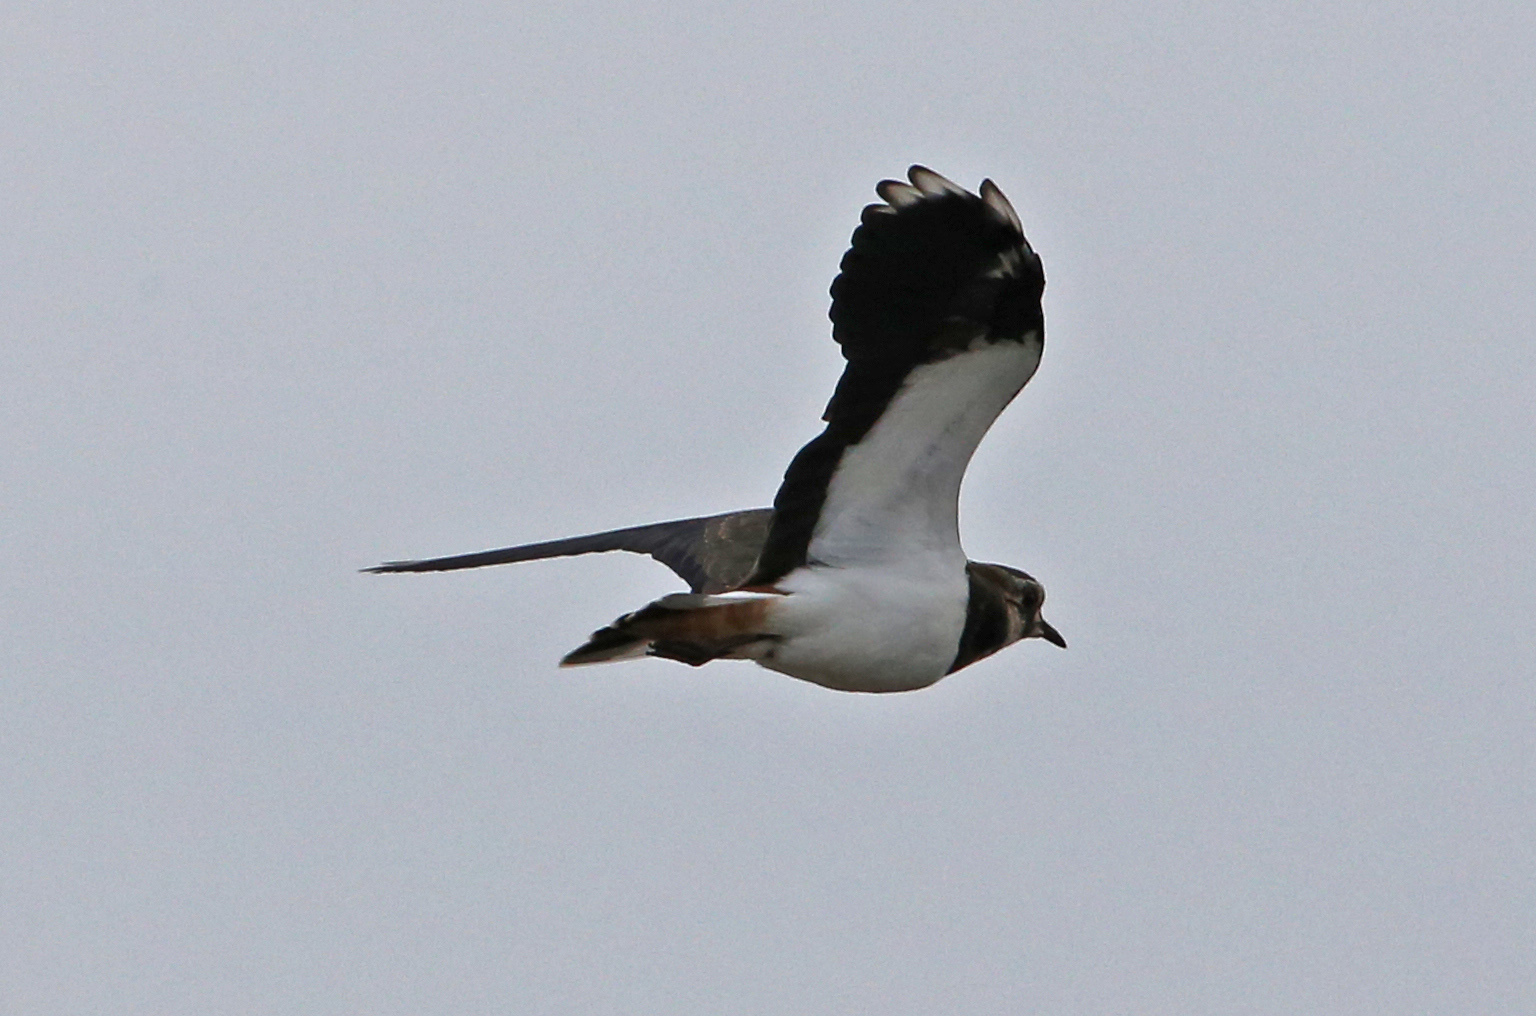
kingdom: Animalia
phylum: Chordata
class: Aves
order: Charadriiformes
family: Charadriidae
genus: Vanellus
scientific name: Vanellus vanellus
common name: Northern lapwing
